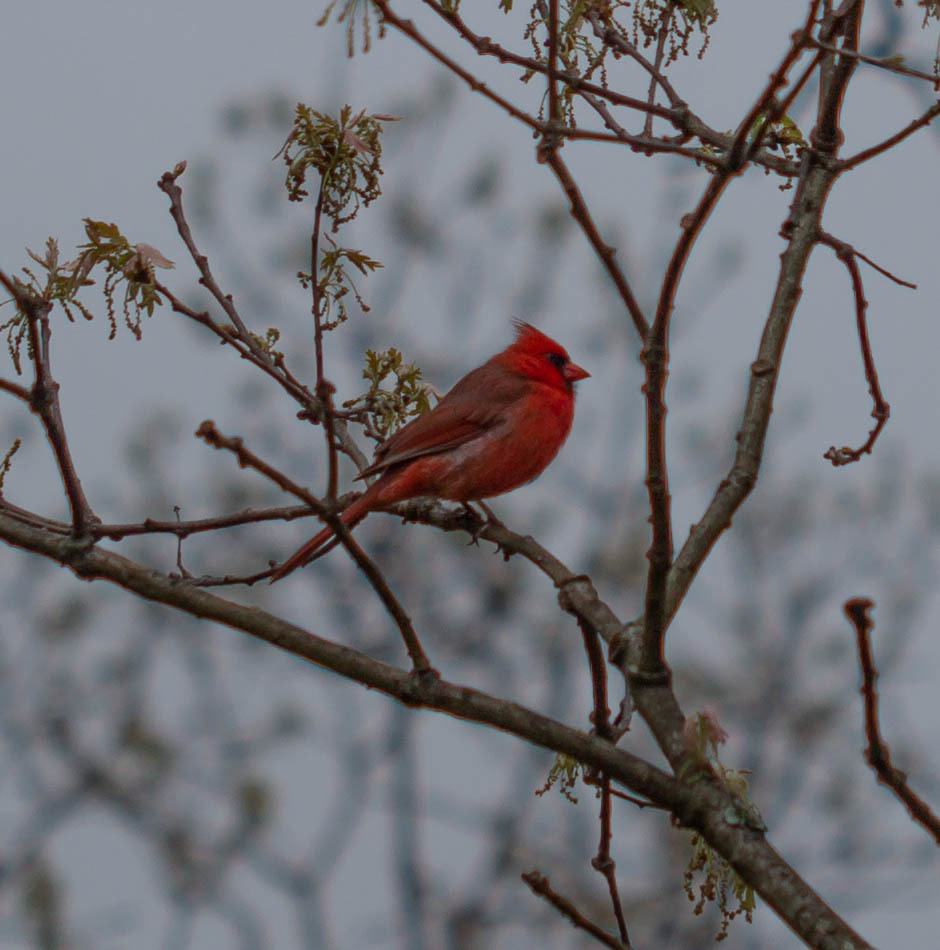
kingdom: Animalia
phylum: Chordata
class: Aves
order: Passeriformes
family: Cardinalidae
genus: Cardinalis
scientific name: Cardinalis cardinalis
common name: Northern cardinal
